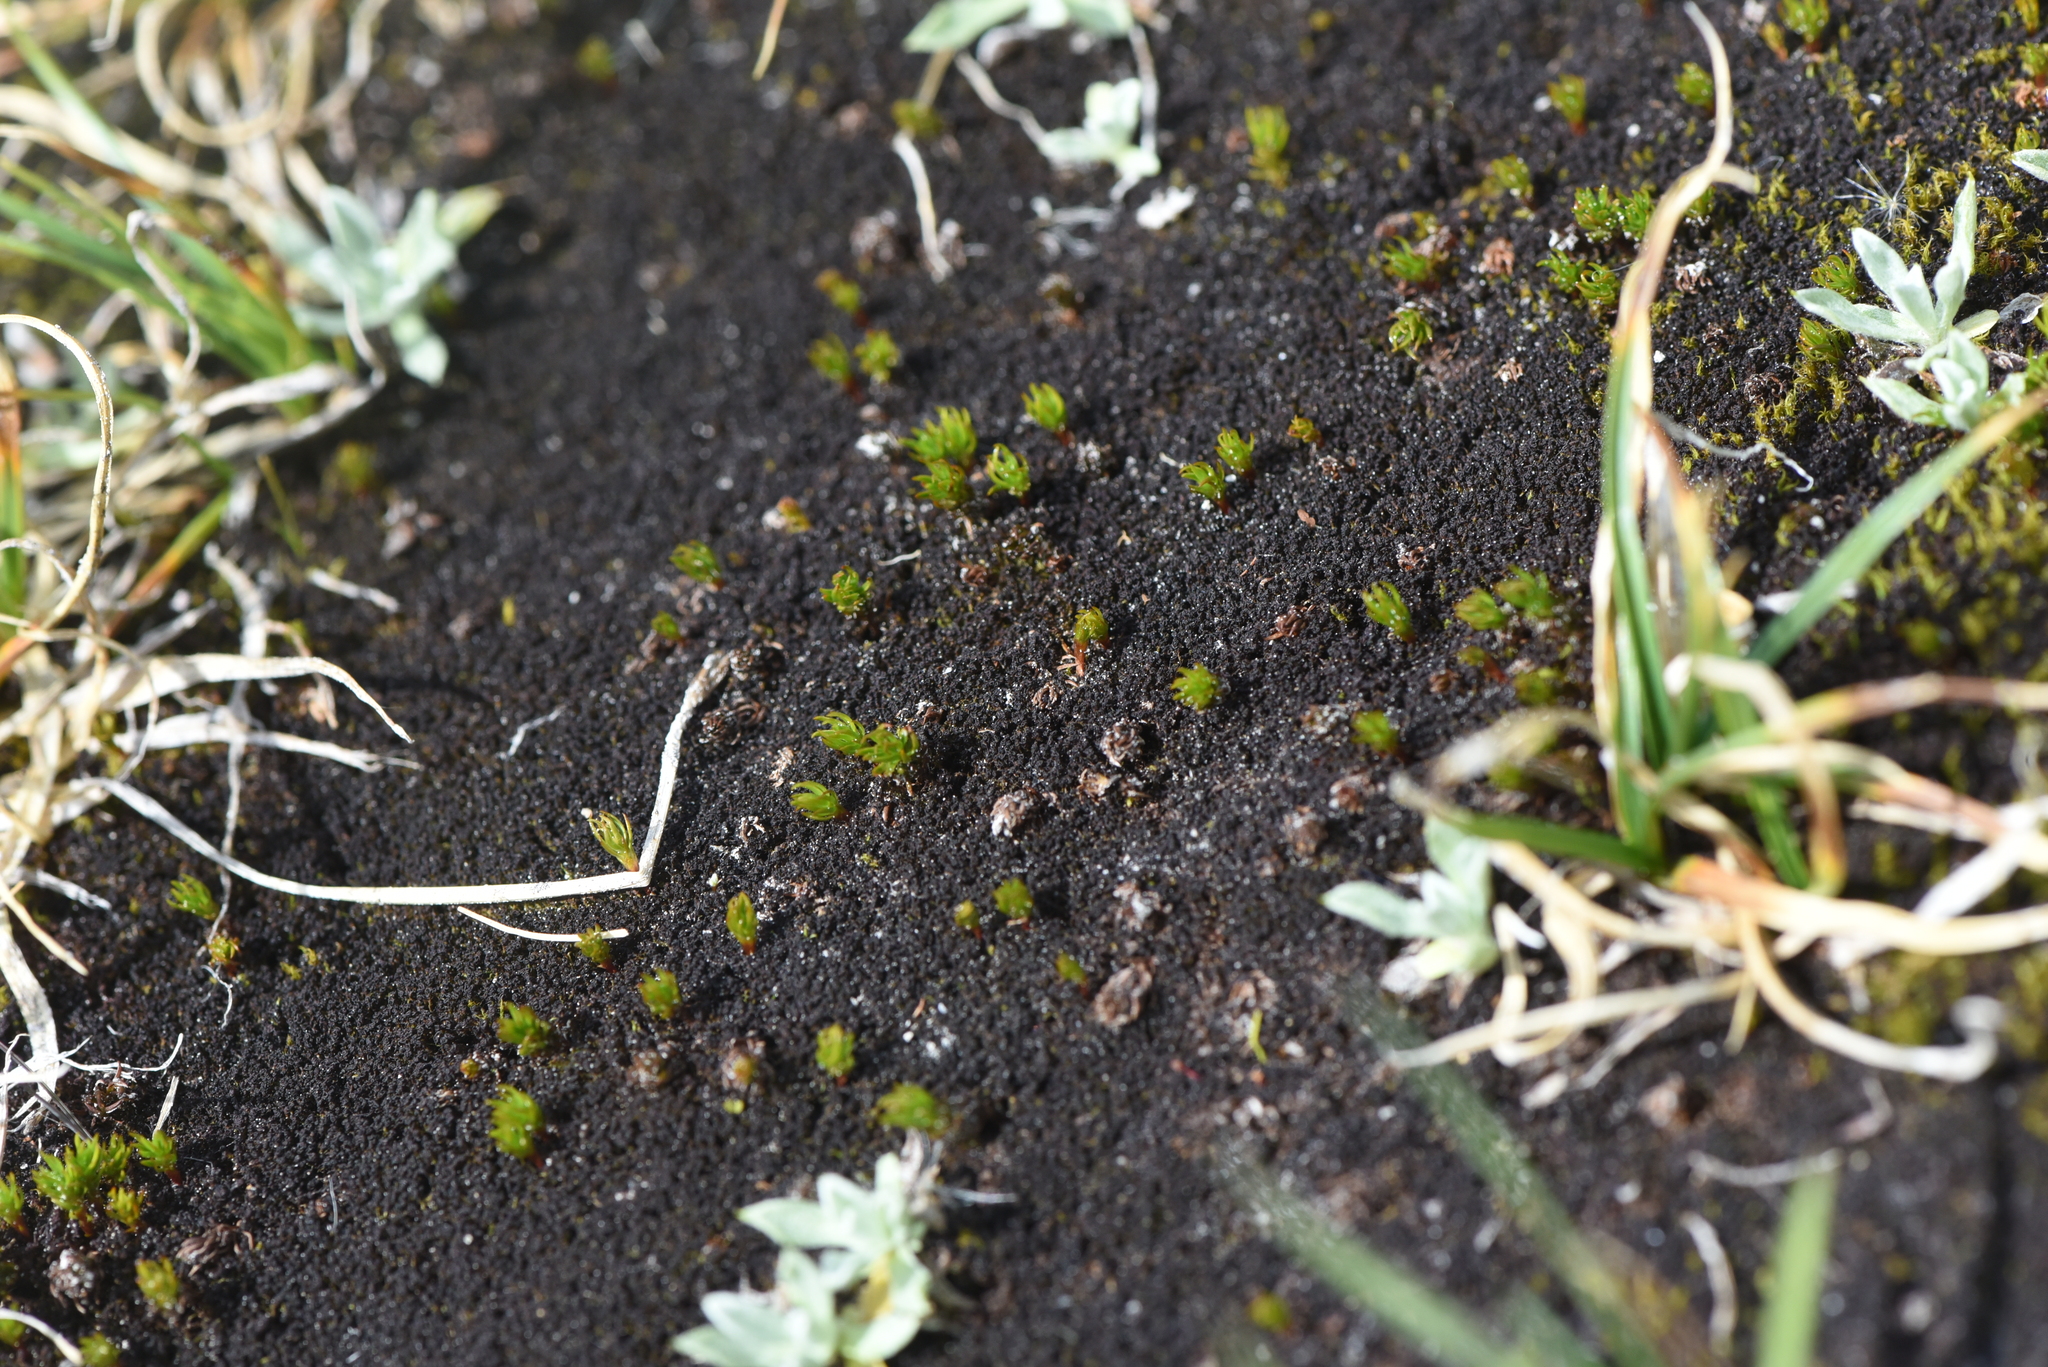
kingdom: Plantae
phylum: Bryophyta
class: Polytrichopsida
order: Polytrichales
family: Polytrichaceae
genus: Polytrichastrum
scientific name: Polytrichastrum sexangulare
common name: Northern haircap
